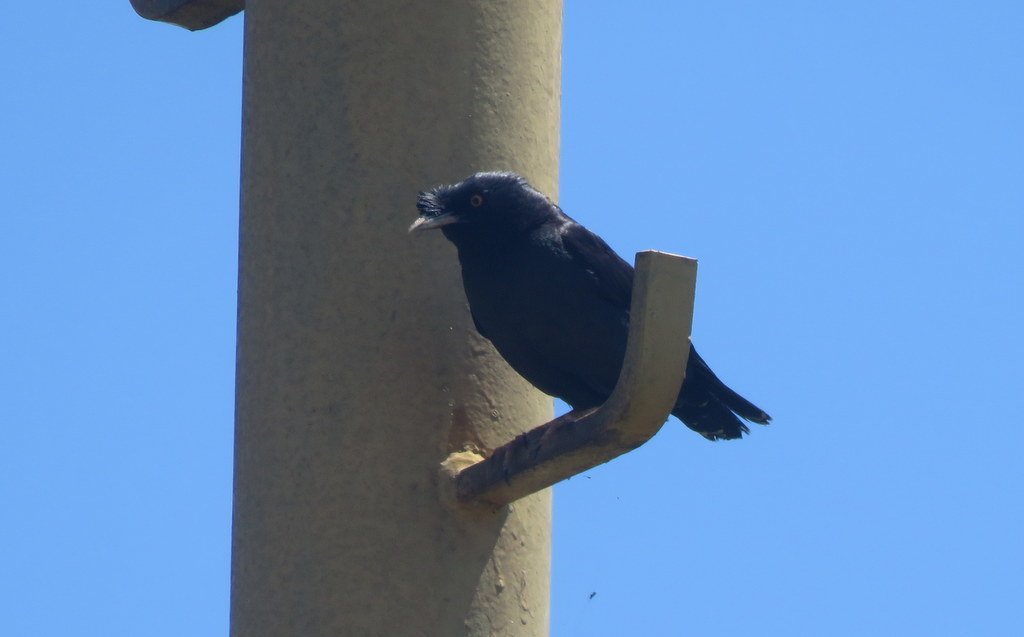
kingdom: Animalia
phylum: Chordata
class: Aves
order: Passeriformes
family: Sturnidae
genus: Acridotheres
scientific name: Acridotheres cristatellus
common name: Crested myna
